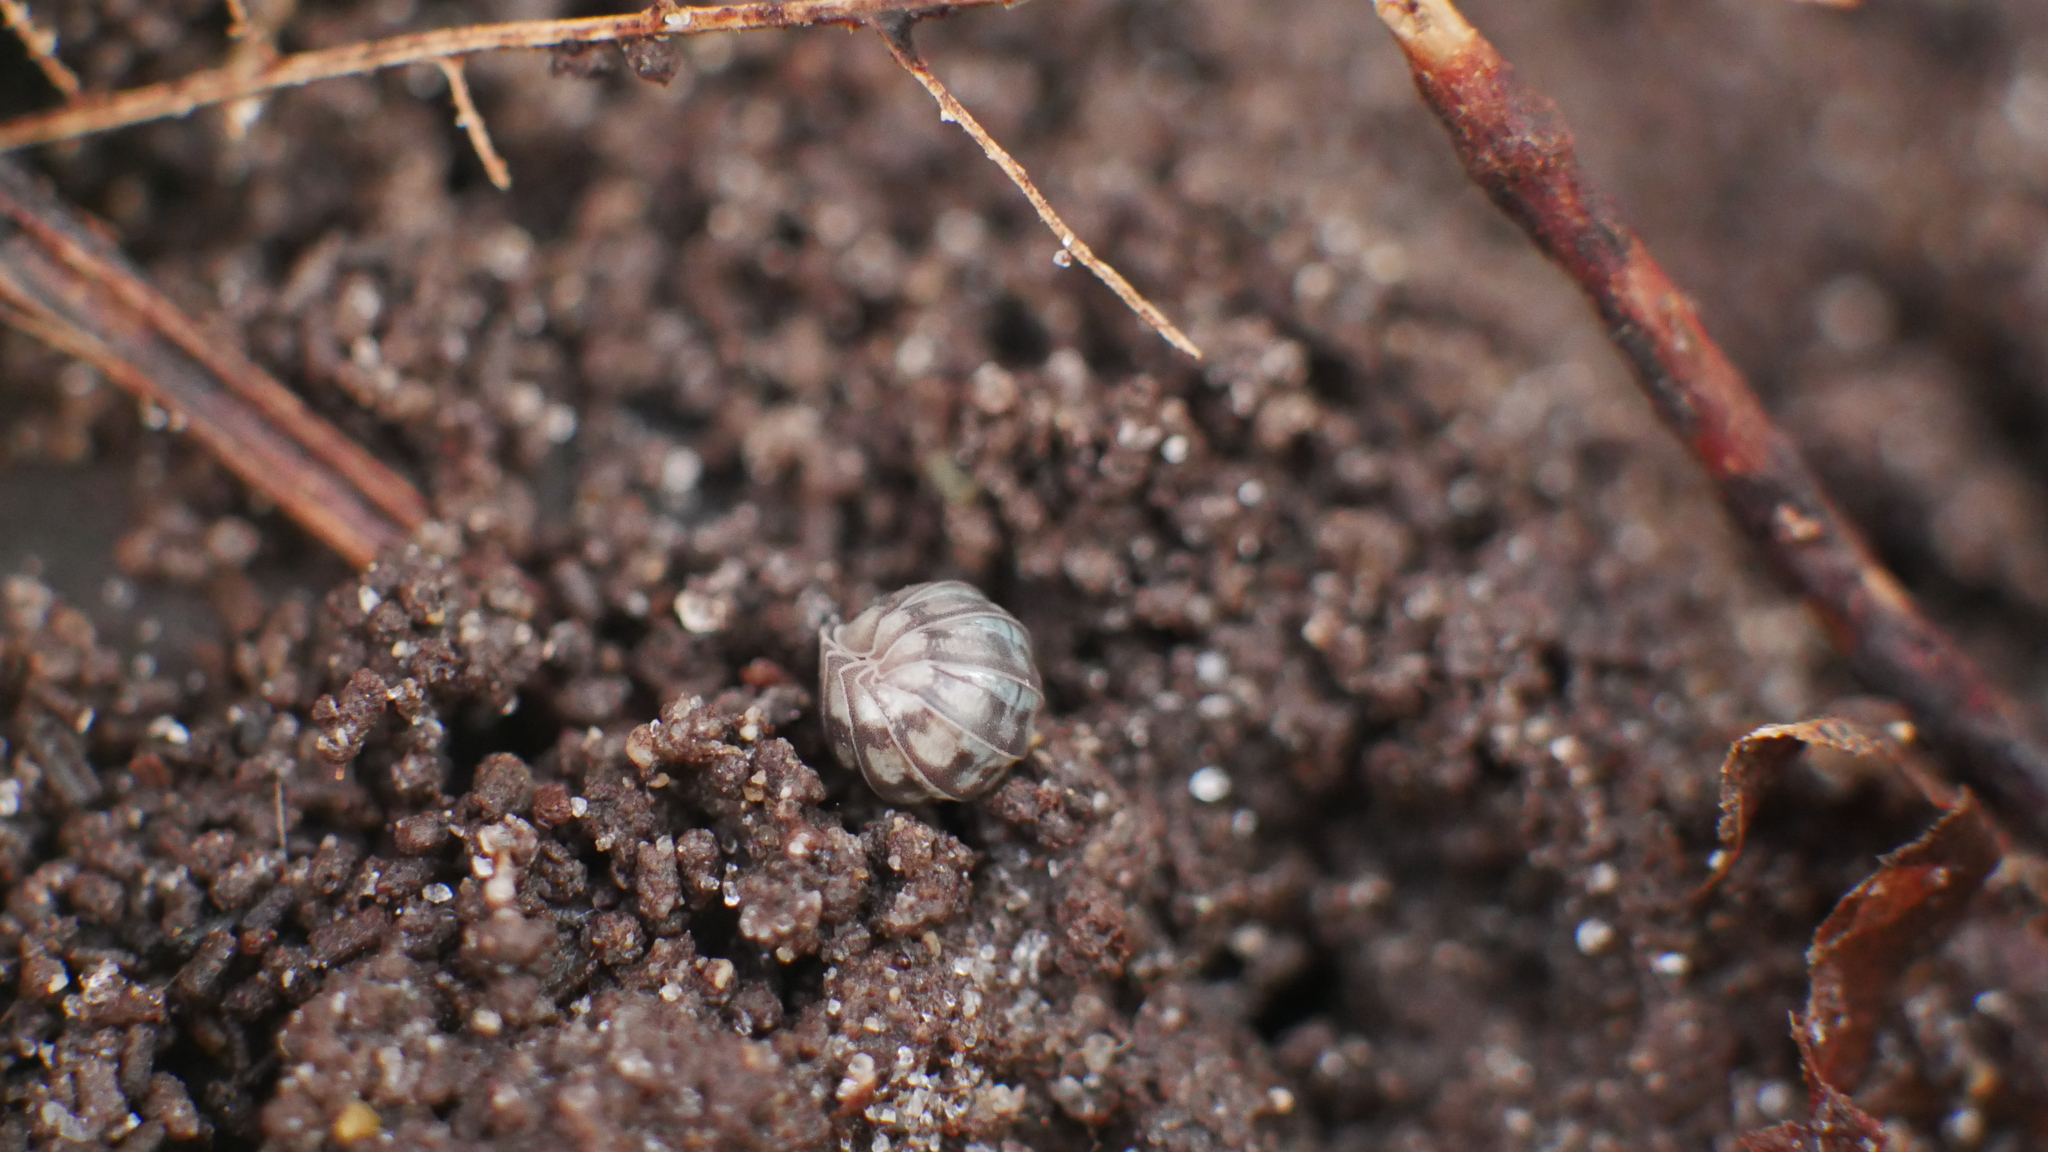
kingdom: Animalia
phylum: Arthropoda
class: Malacostraca
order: Isopoda
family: Armadillidiidae
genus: Armadillidium
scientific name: Armadillidium nasatum
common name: Isopod
